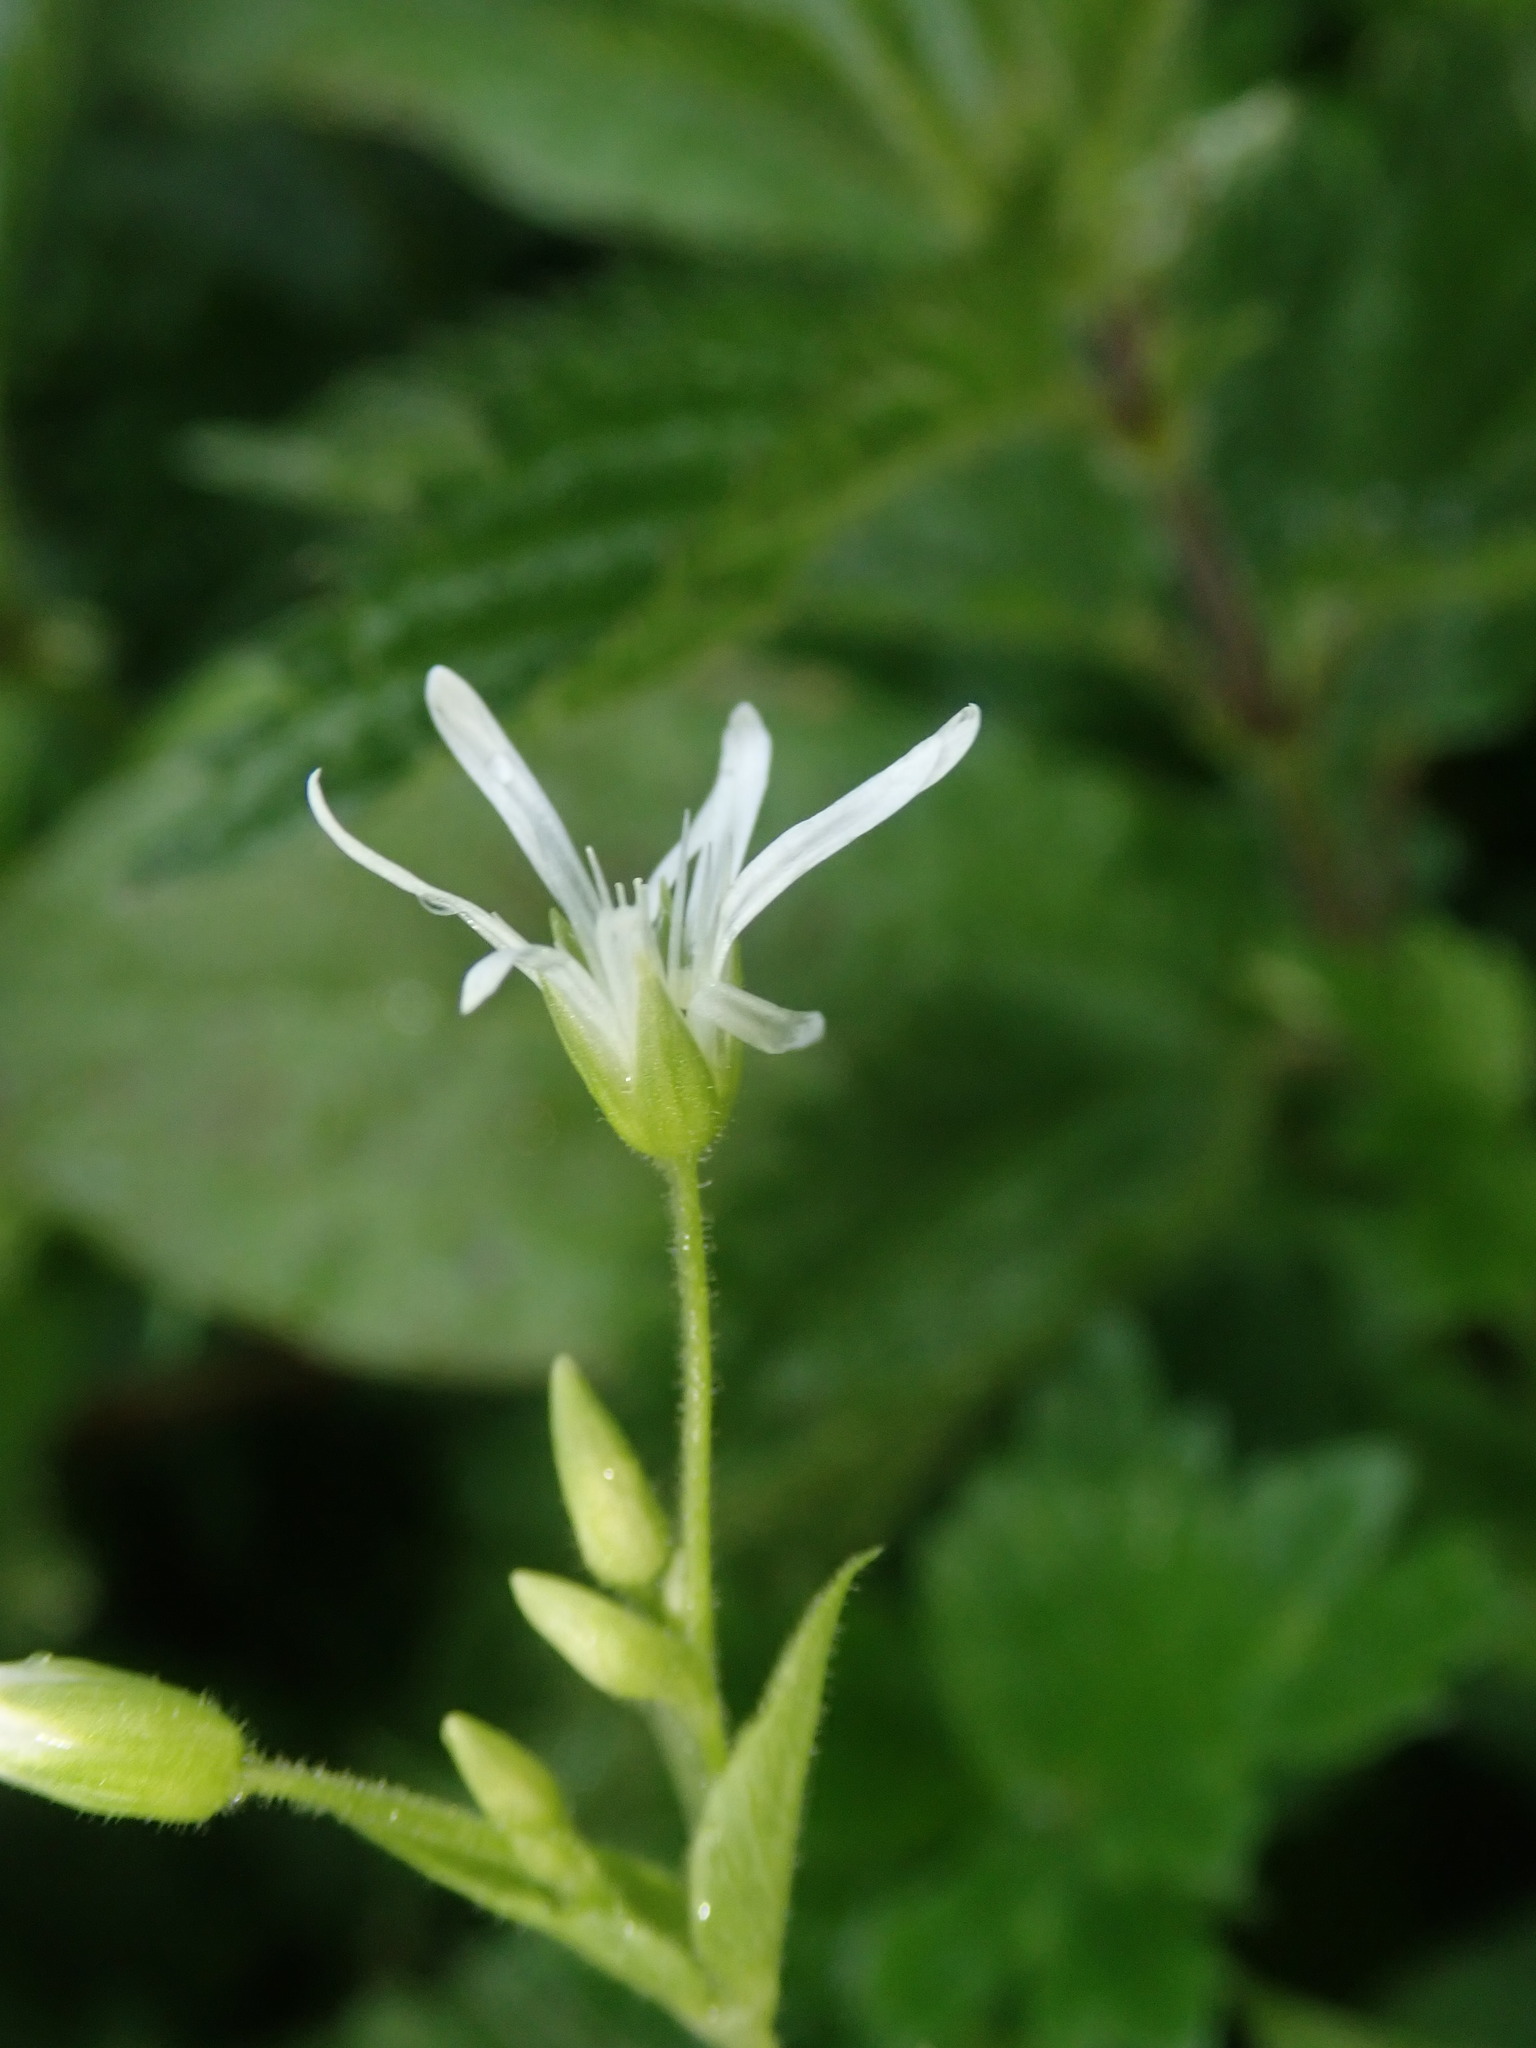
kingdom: Plantae
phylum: Tracheophyta
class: Magnoliopsida
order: Caryophyllales
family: Caryophyllaceae
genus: Stellaria
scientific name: Stellaria nemorum
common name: Wood stitchwort
